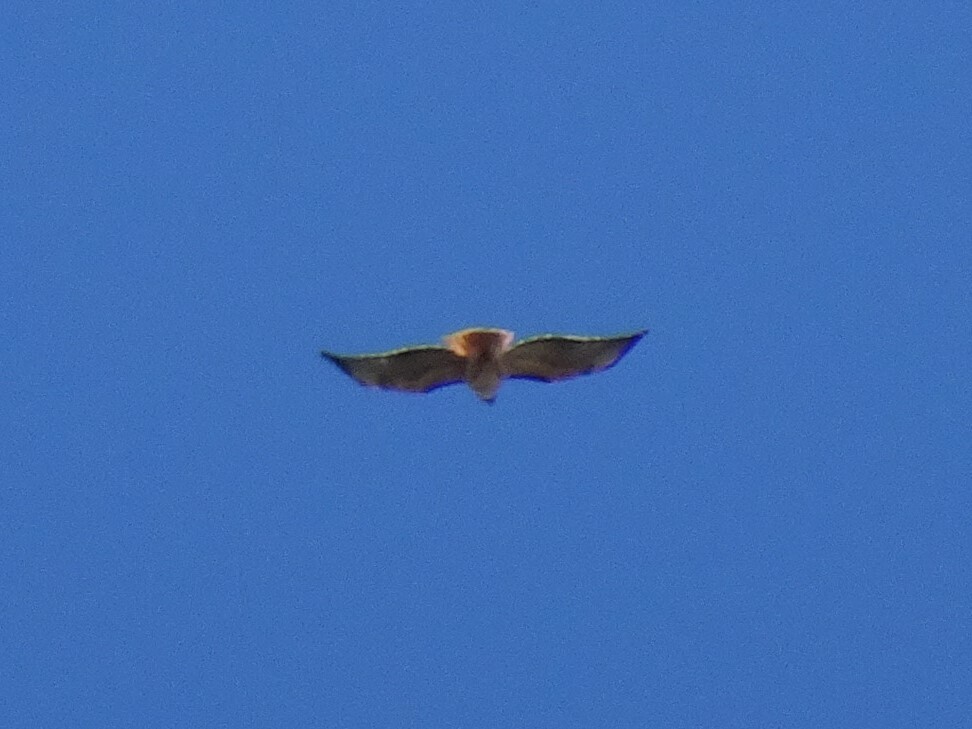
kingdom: Animalia
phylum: Chordata
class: Aves
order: Accipitriformes
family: Accipitridae
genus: Buteo
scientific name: Buteo jamaicensis
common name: Red-tailed hawk
